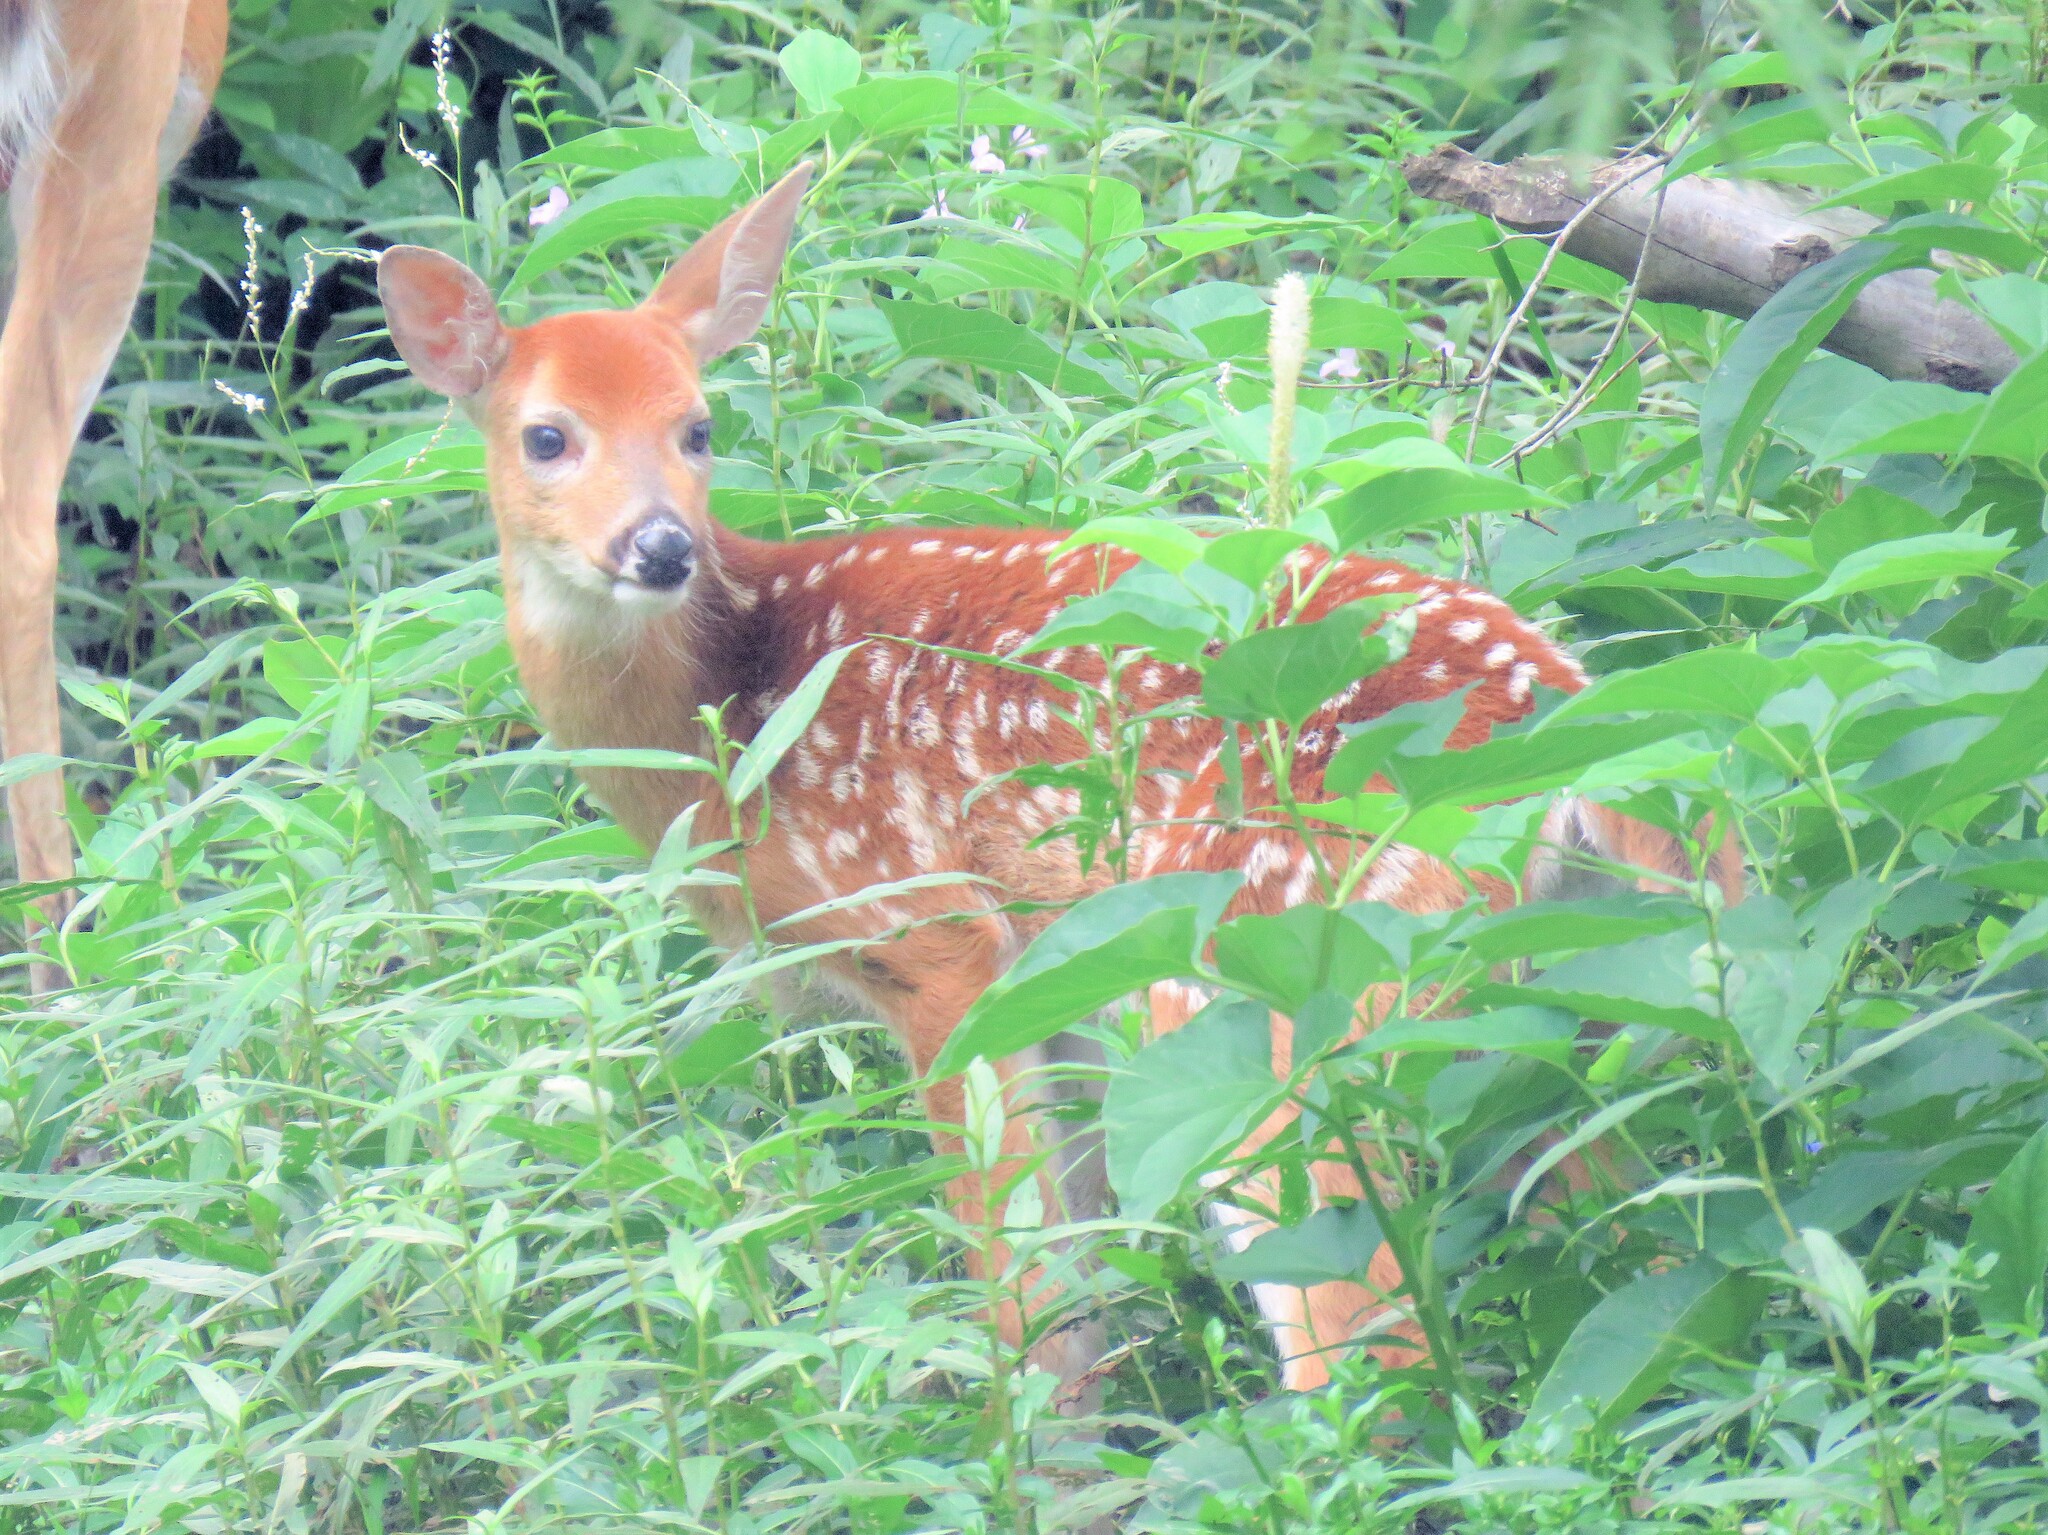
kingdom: Animalia
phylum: Chordata
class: Mammalia
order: Artiodactyla
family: Cervidae
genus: Odocoileus
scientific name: Odocoileus virginianus
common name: White-tailed deer
